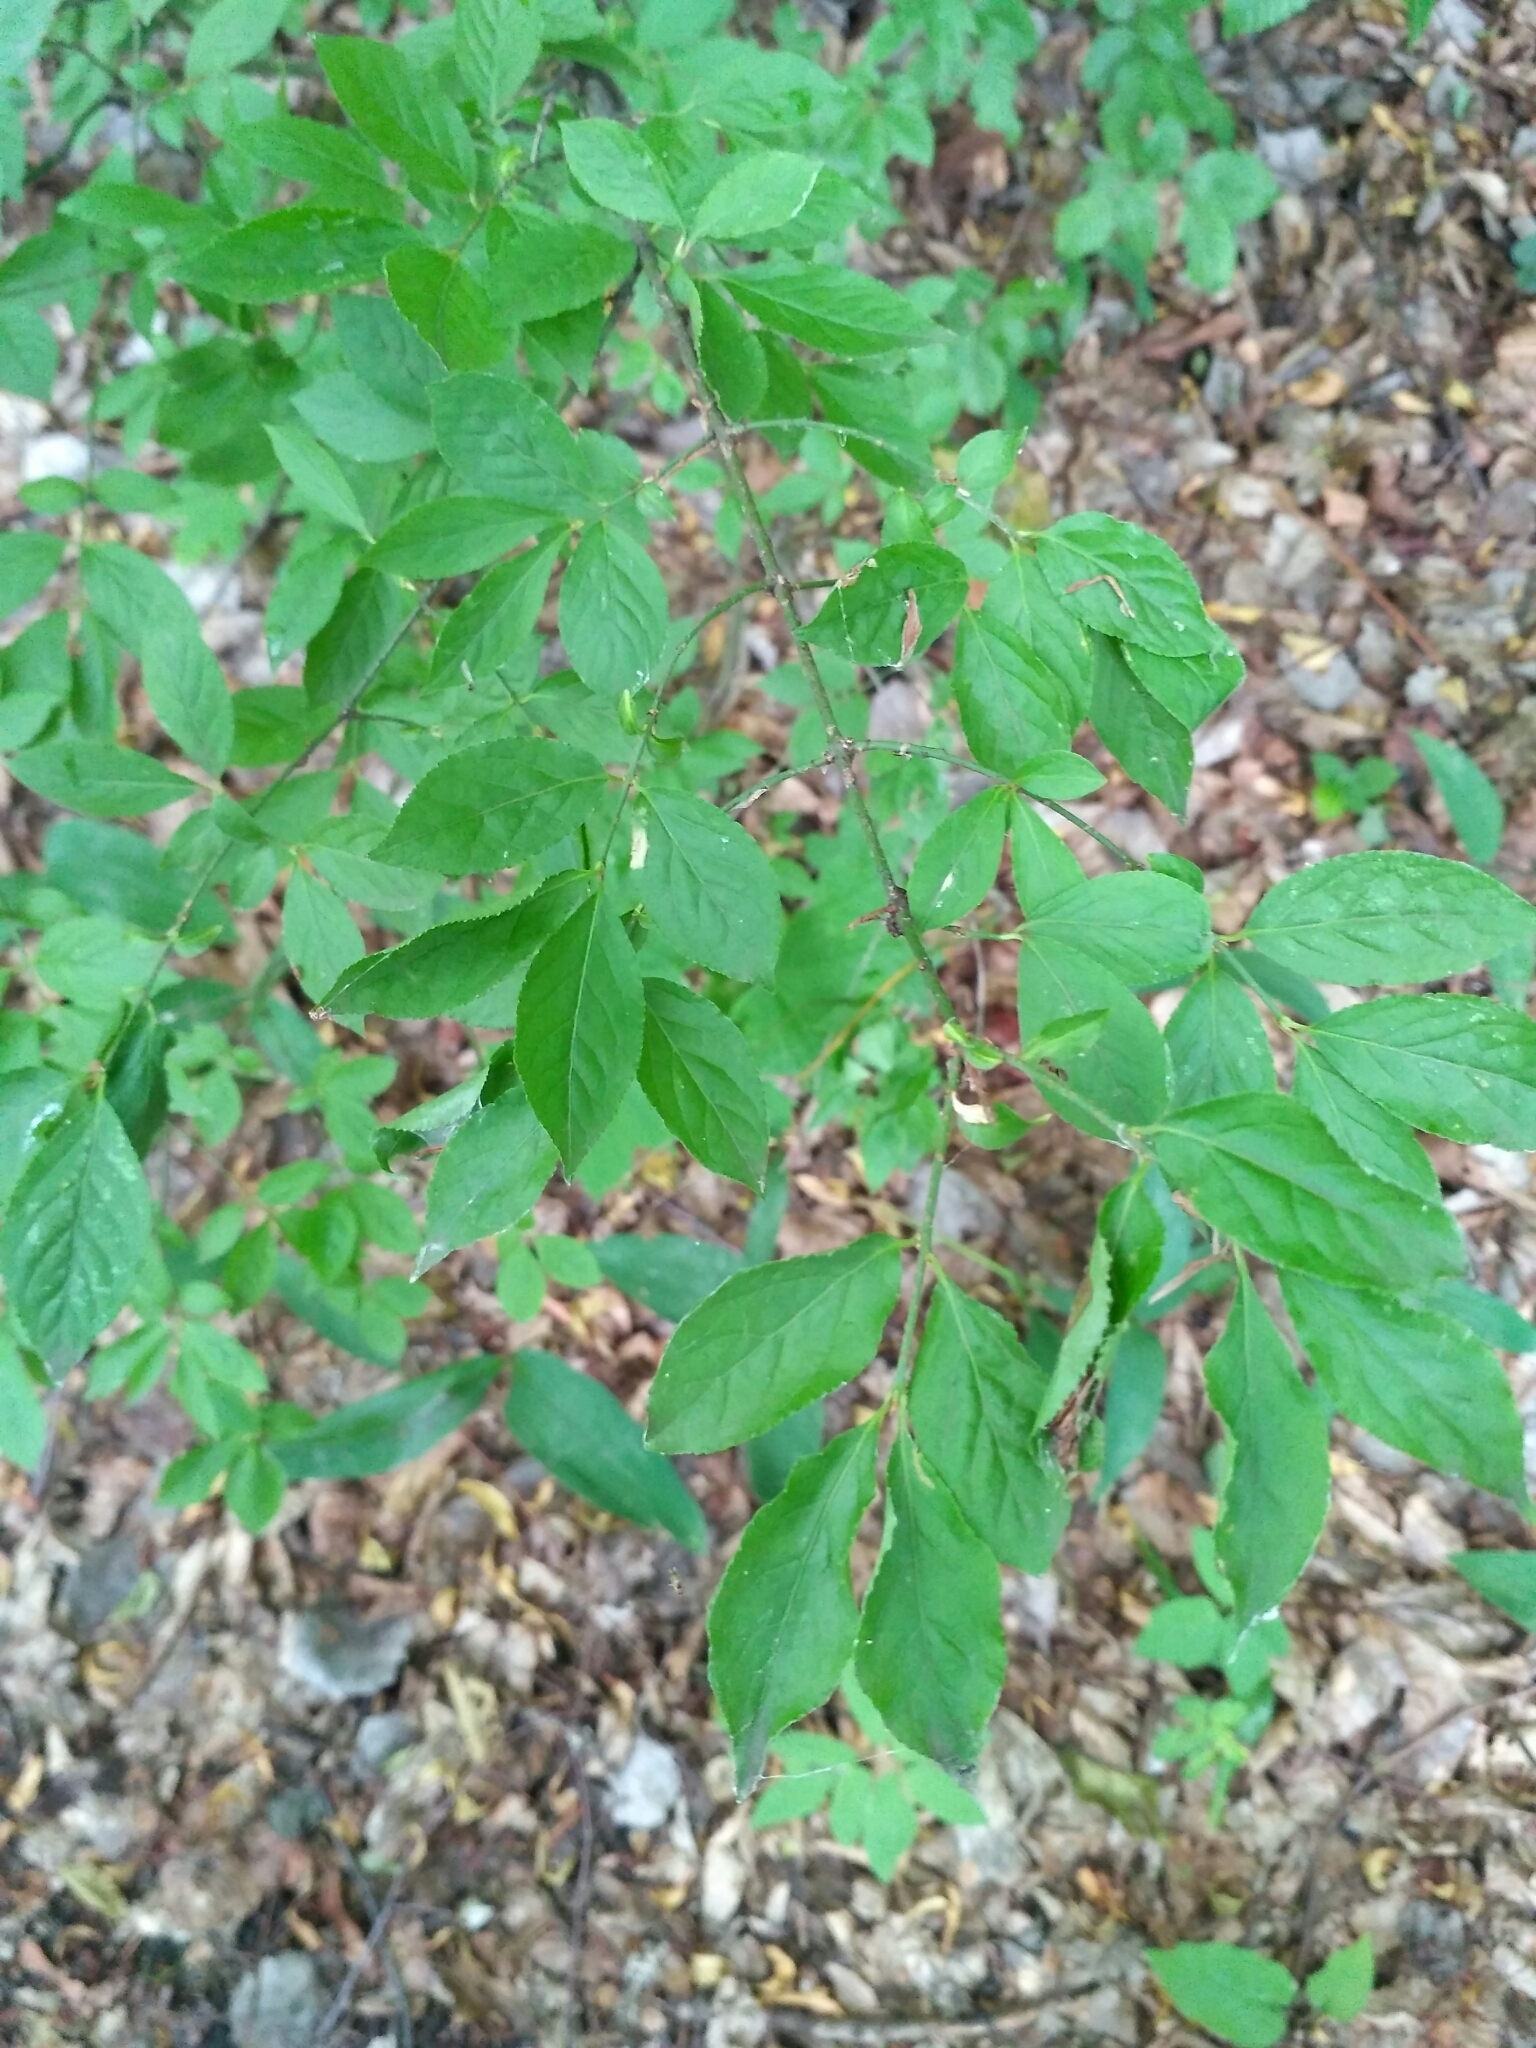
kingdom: Plantae
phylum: Tracheophyta
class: Magnoliopsida
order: Celastrales
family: Celastraceae
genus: Euonymus
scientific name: Euonymus verrucosus
